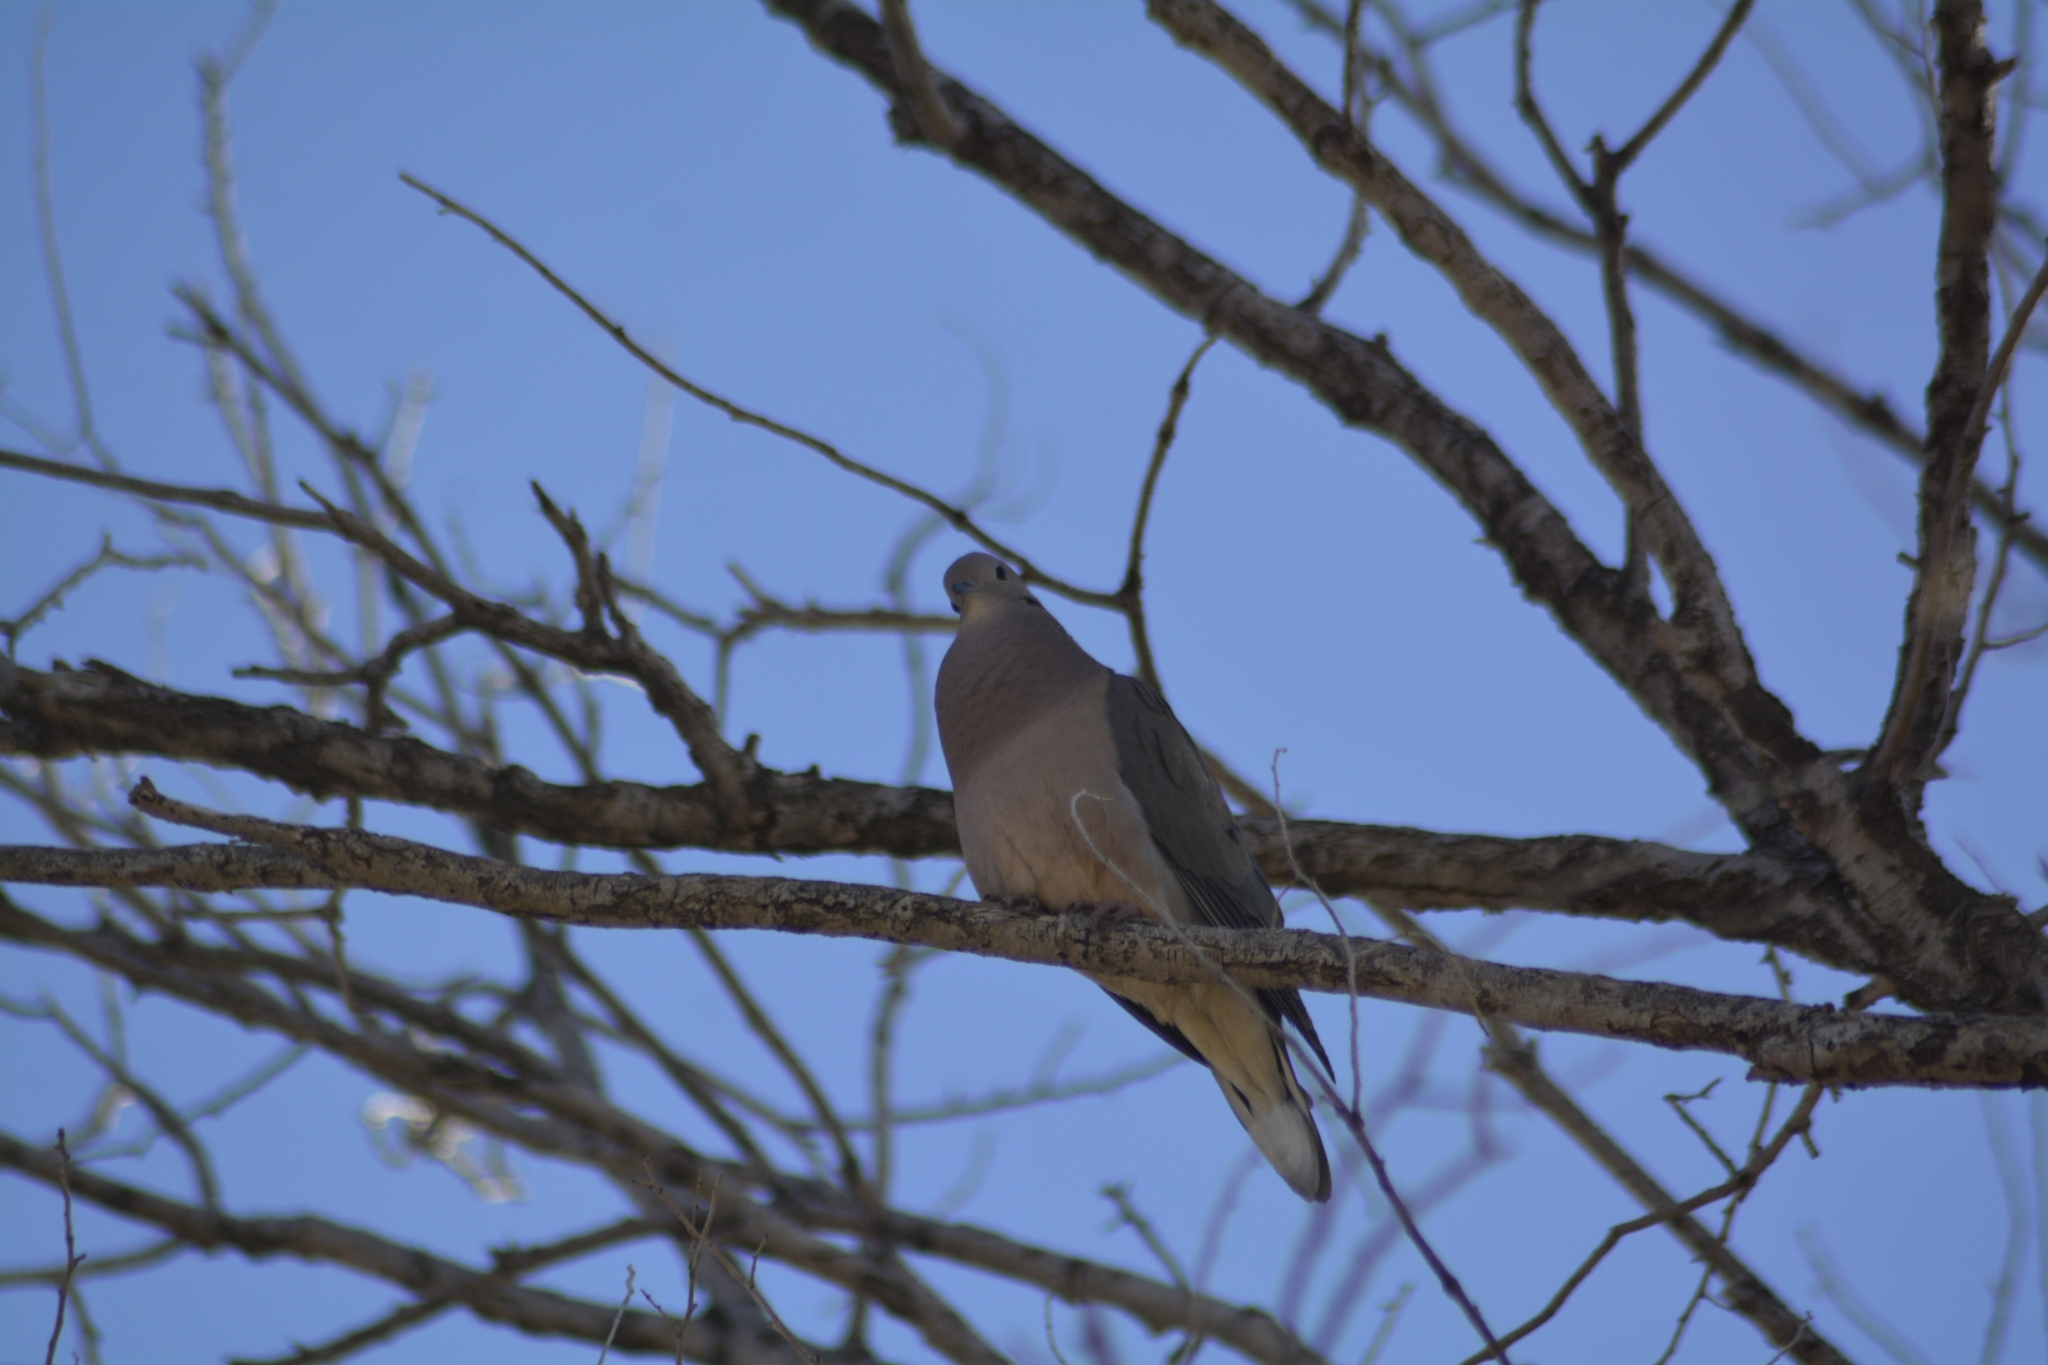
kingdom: Animalia
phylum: Chordata
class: Aves
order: Columbiformes
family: Columbidae
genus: Zenaida
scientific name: Zenaida auriculata
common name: Eared dove
